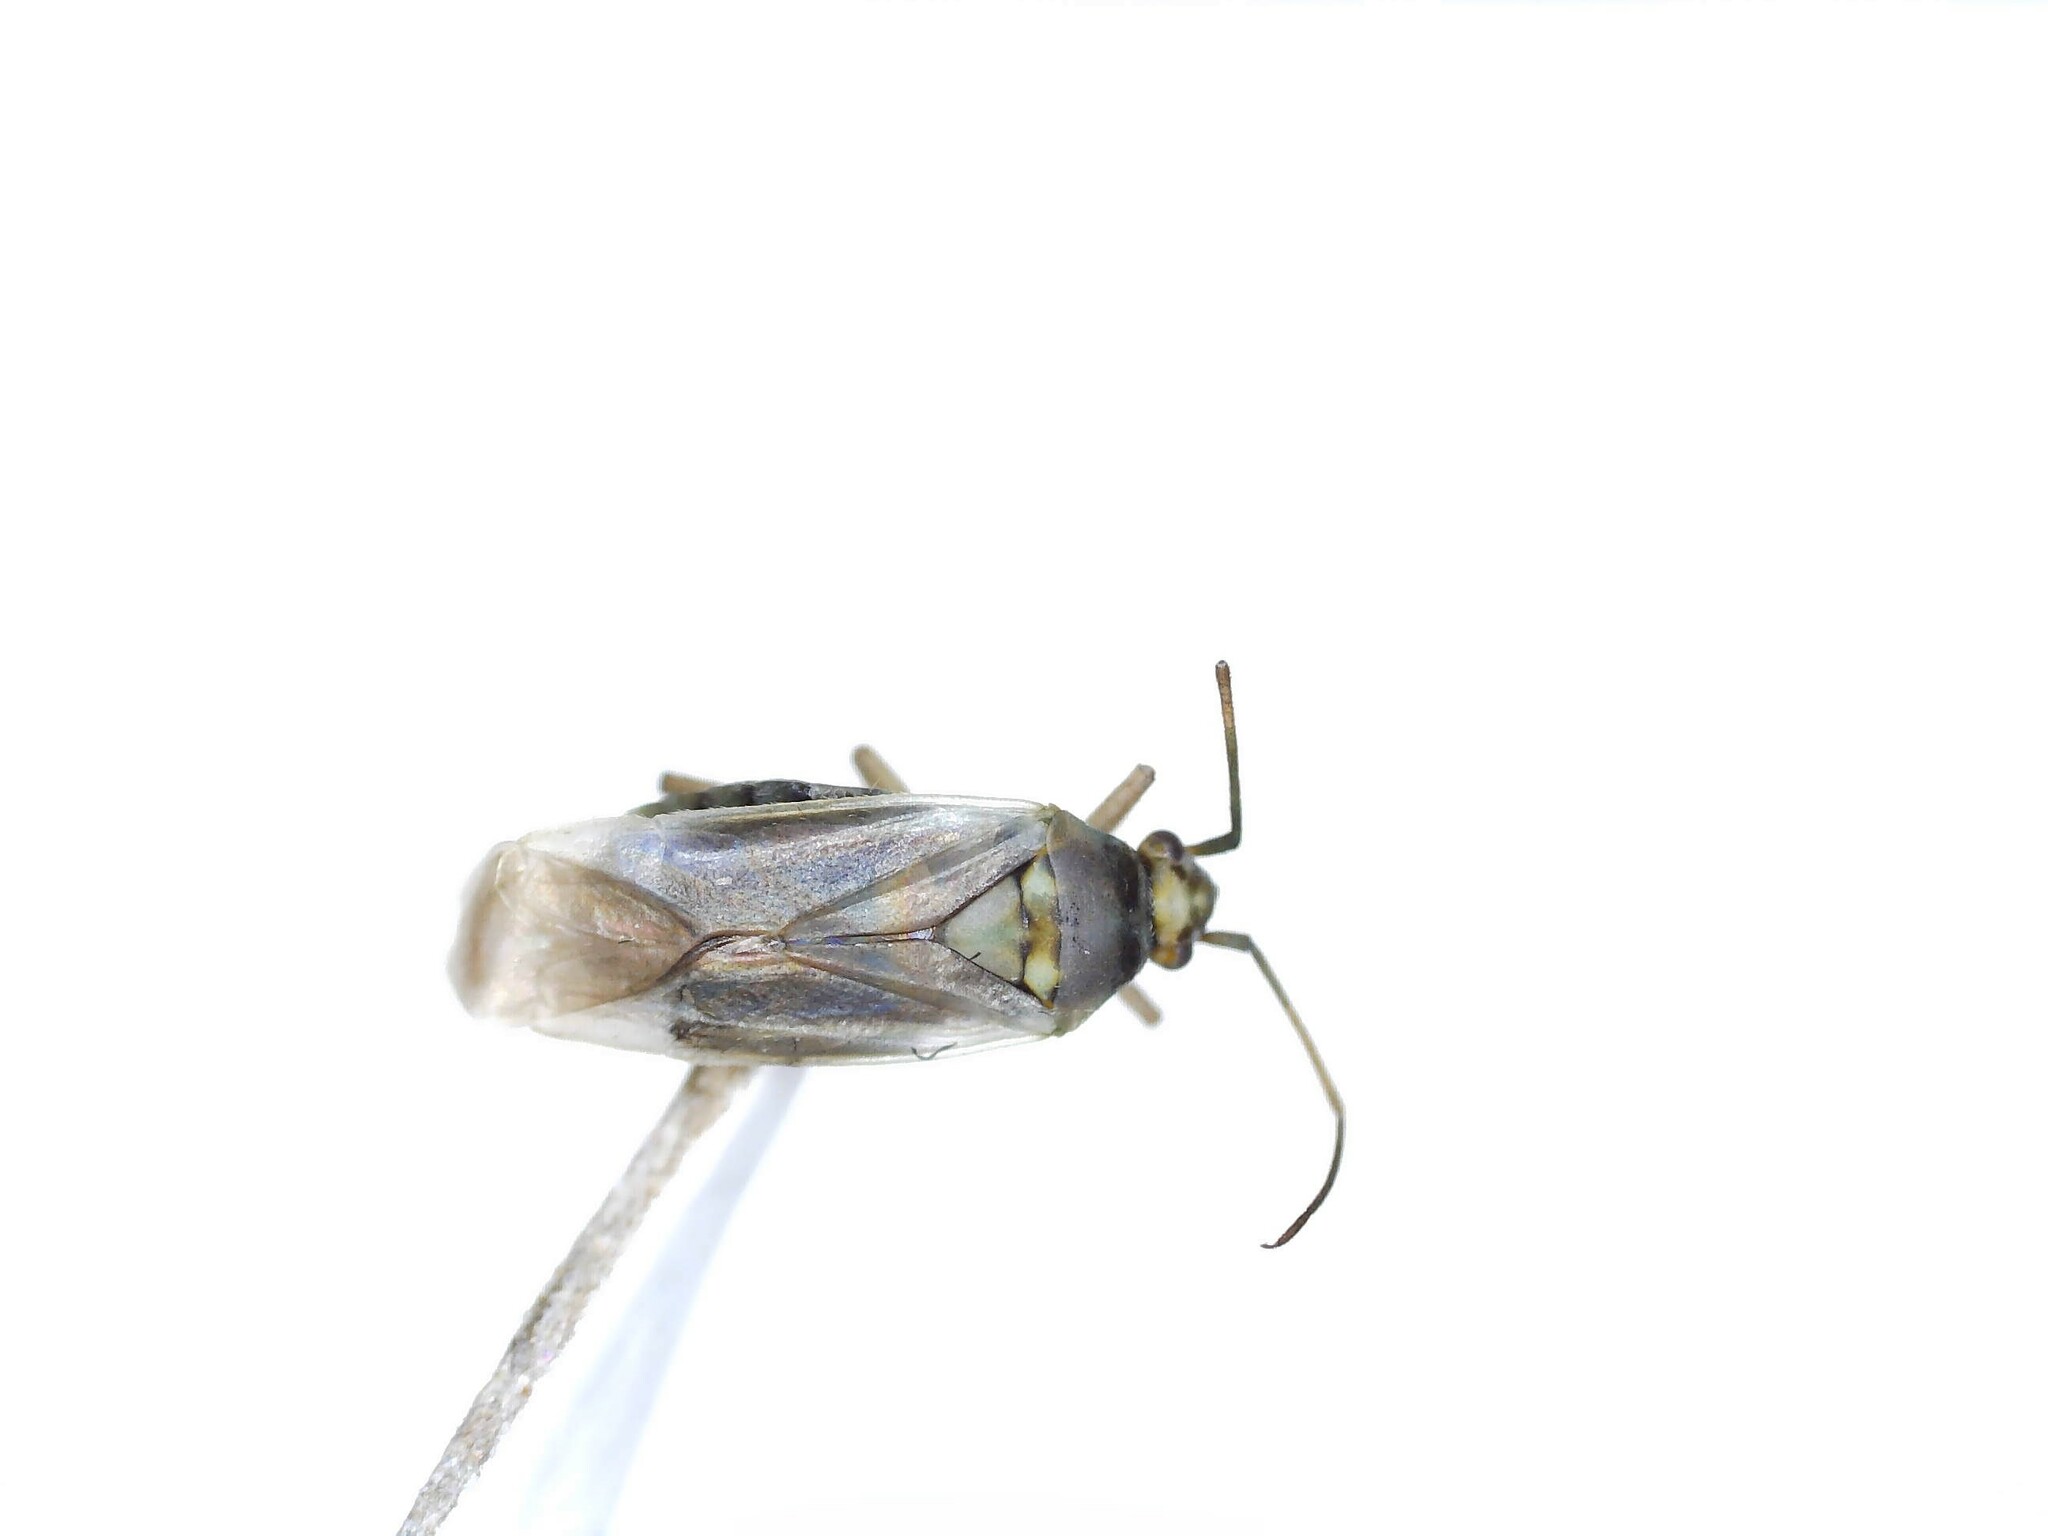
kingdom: Animalia
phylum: Arthropoda
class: Insecta
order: Hemiptera
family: Miridae
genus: Lopus
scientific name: Lopus decolor
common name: Plant bug
